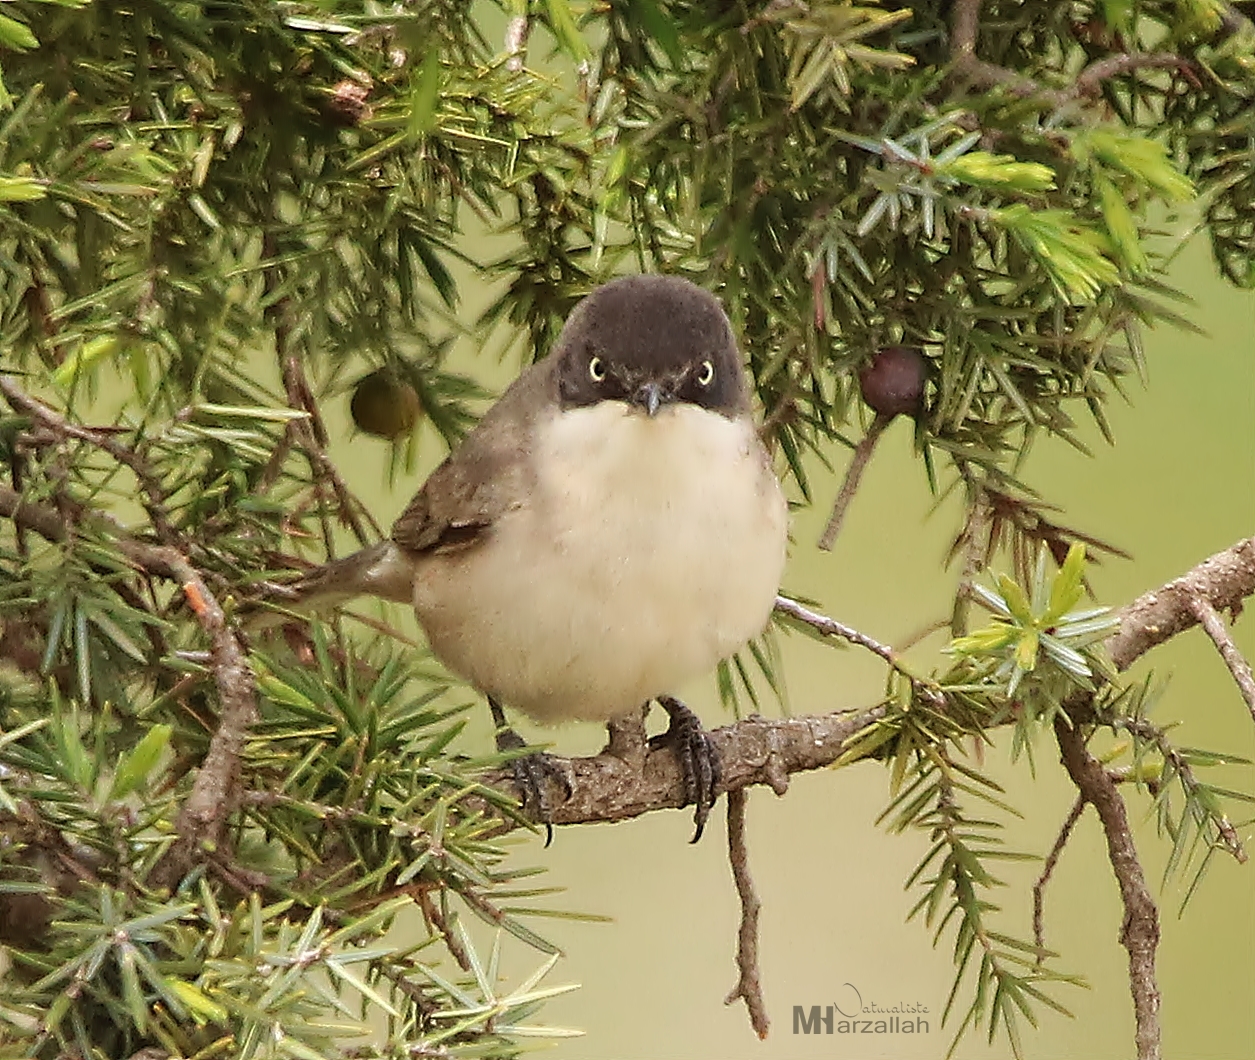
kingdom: Animalia
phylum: Chordata
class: Aves
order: Passeriformes
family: Sylviidae
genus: Sylvia
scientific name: Sylvia hortensis
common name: Orphean warbler
